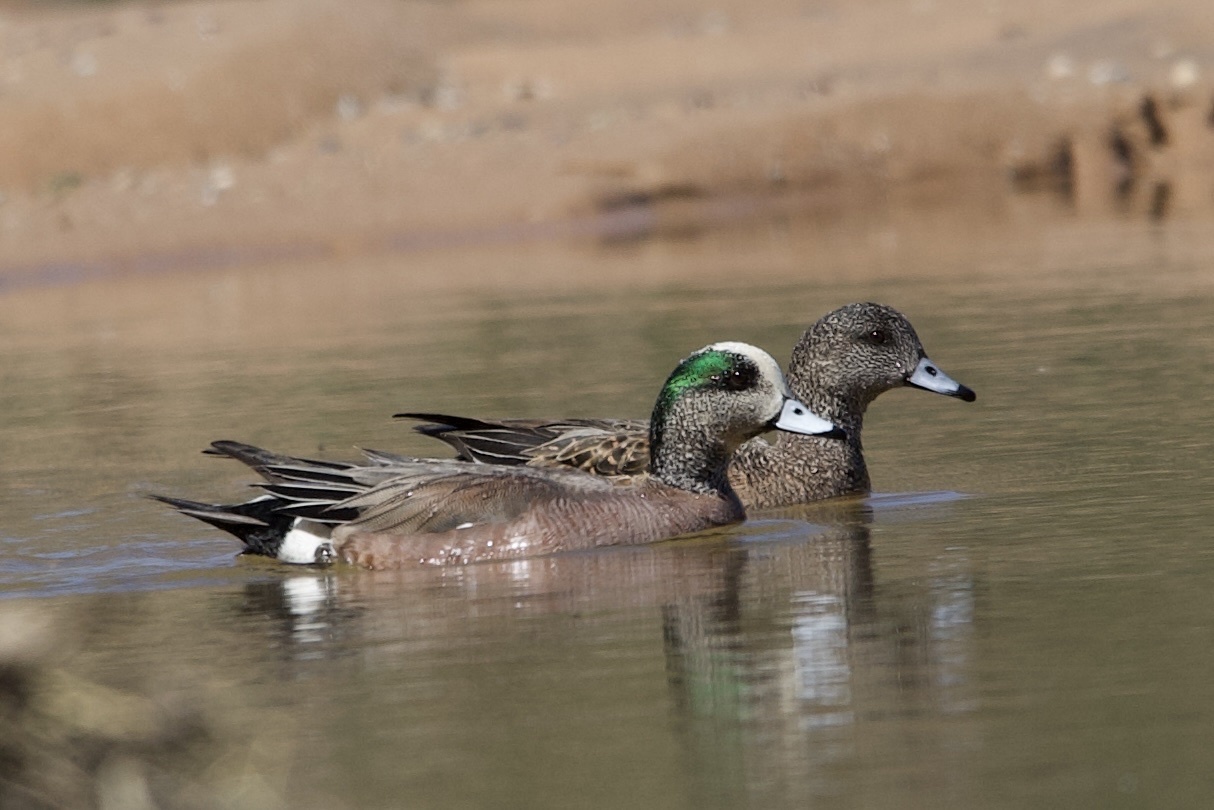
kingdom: Animalia
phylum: Chordata
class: Aves
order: Anseriformes
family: Anatidae
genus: Mareca
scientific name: Mareca americana
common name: American wigeon
